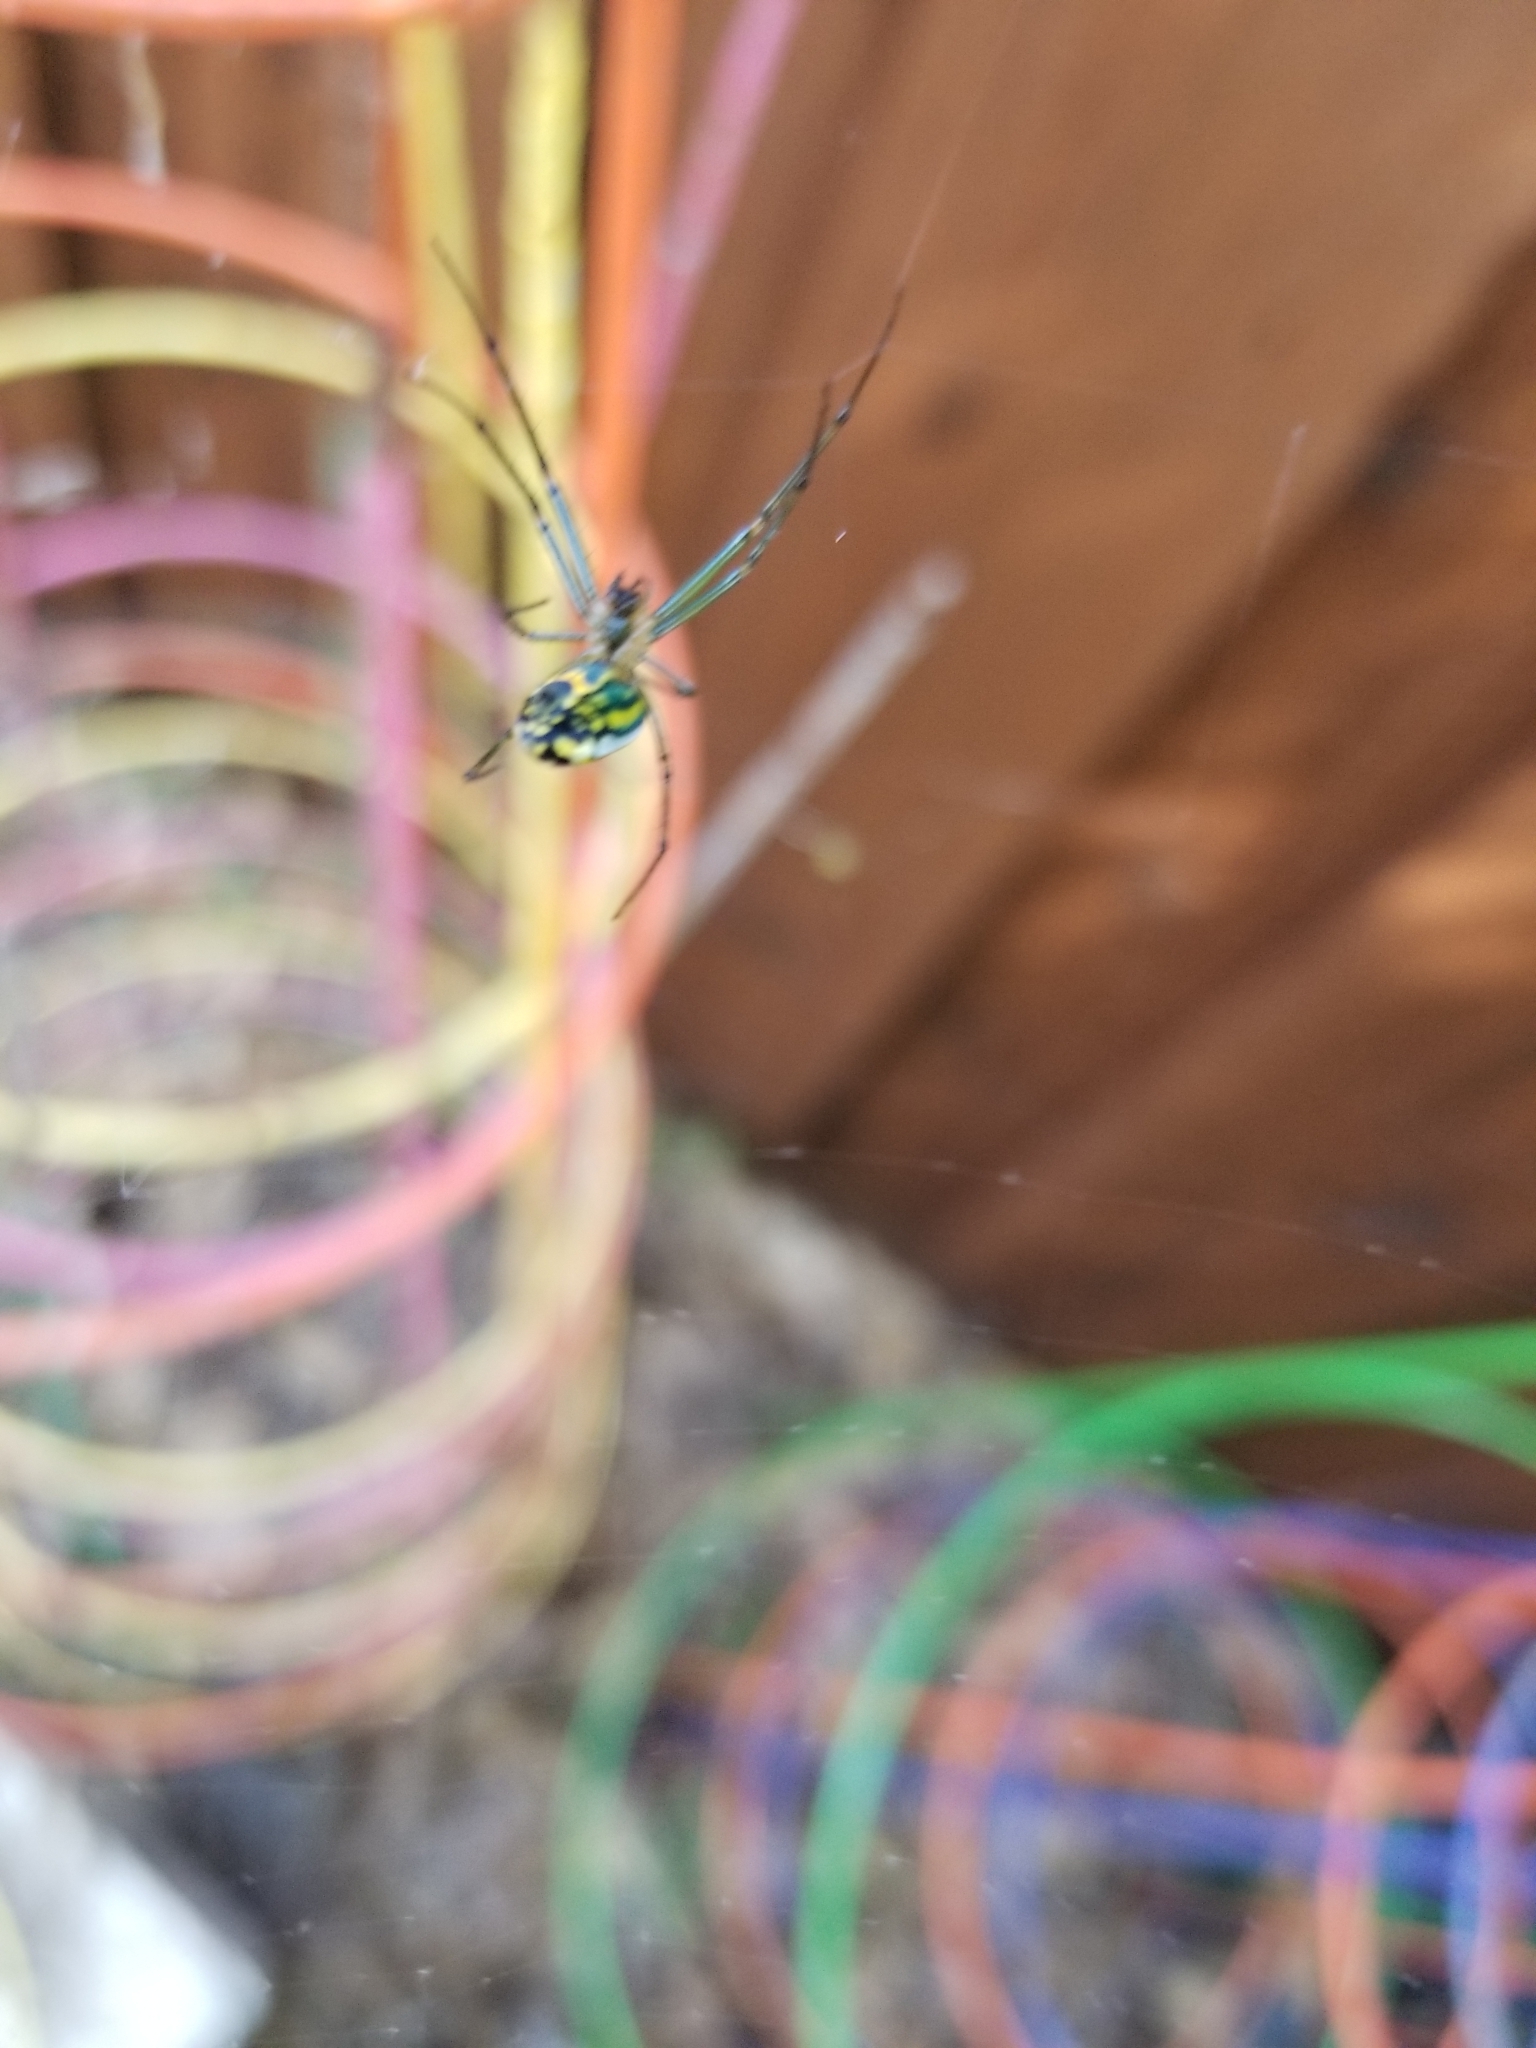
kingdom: Animalia
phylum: Arthropoda
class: Arachnida
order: Araneae
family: Tetragnathidae
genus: Leucauge
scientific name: Leucauge venusta
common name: Longjawed orb weavers
